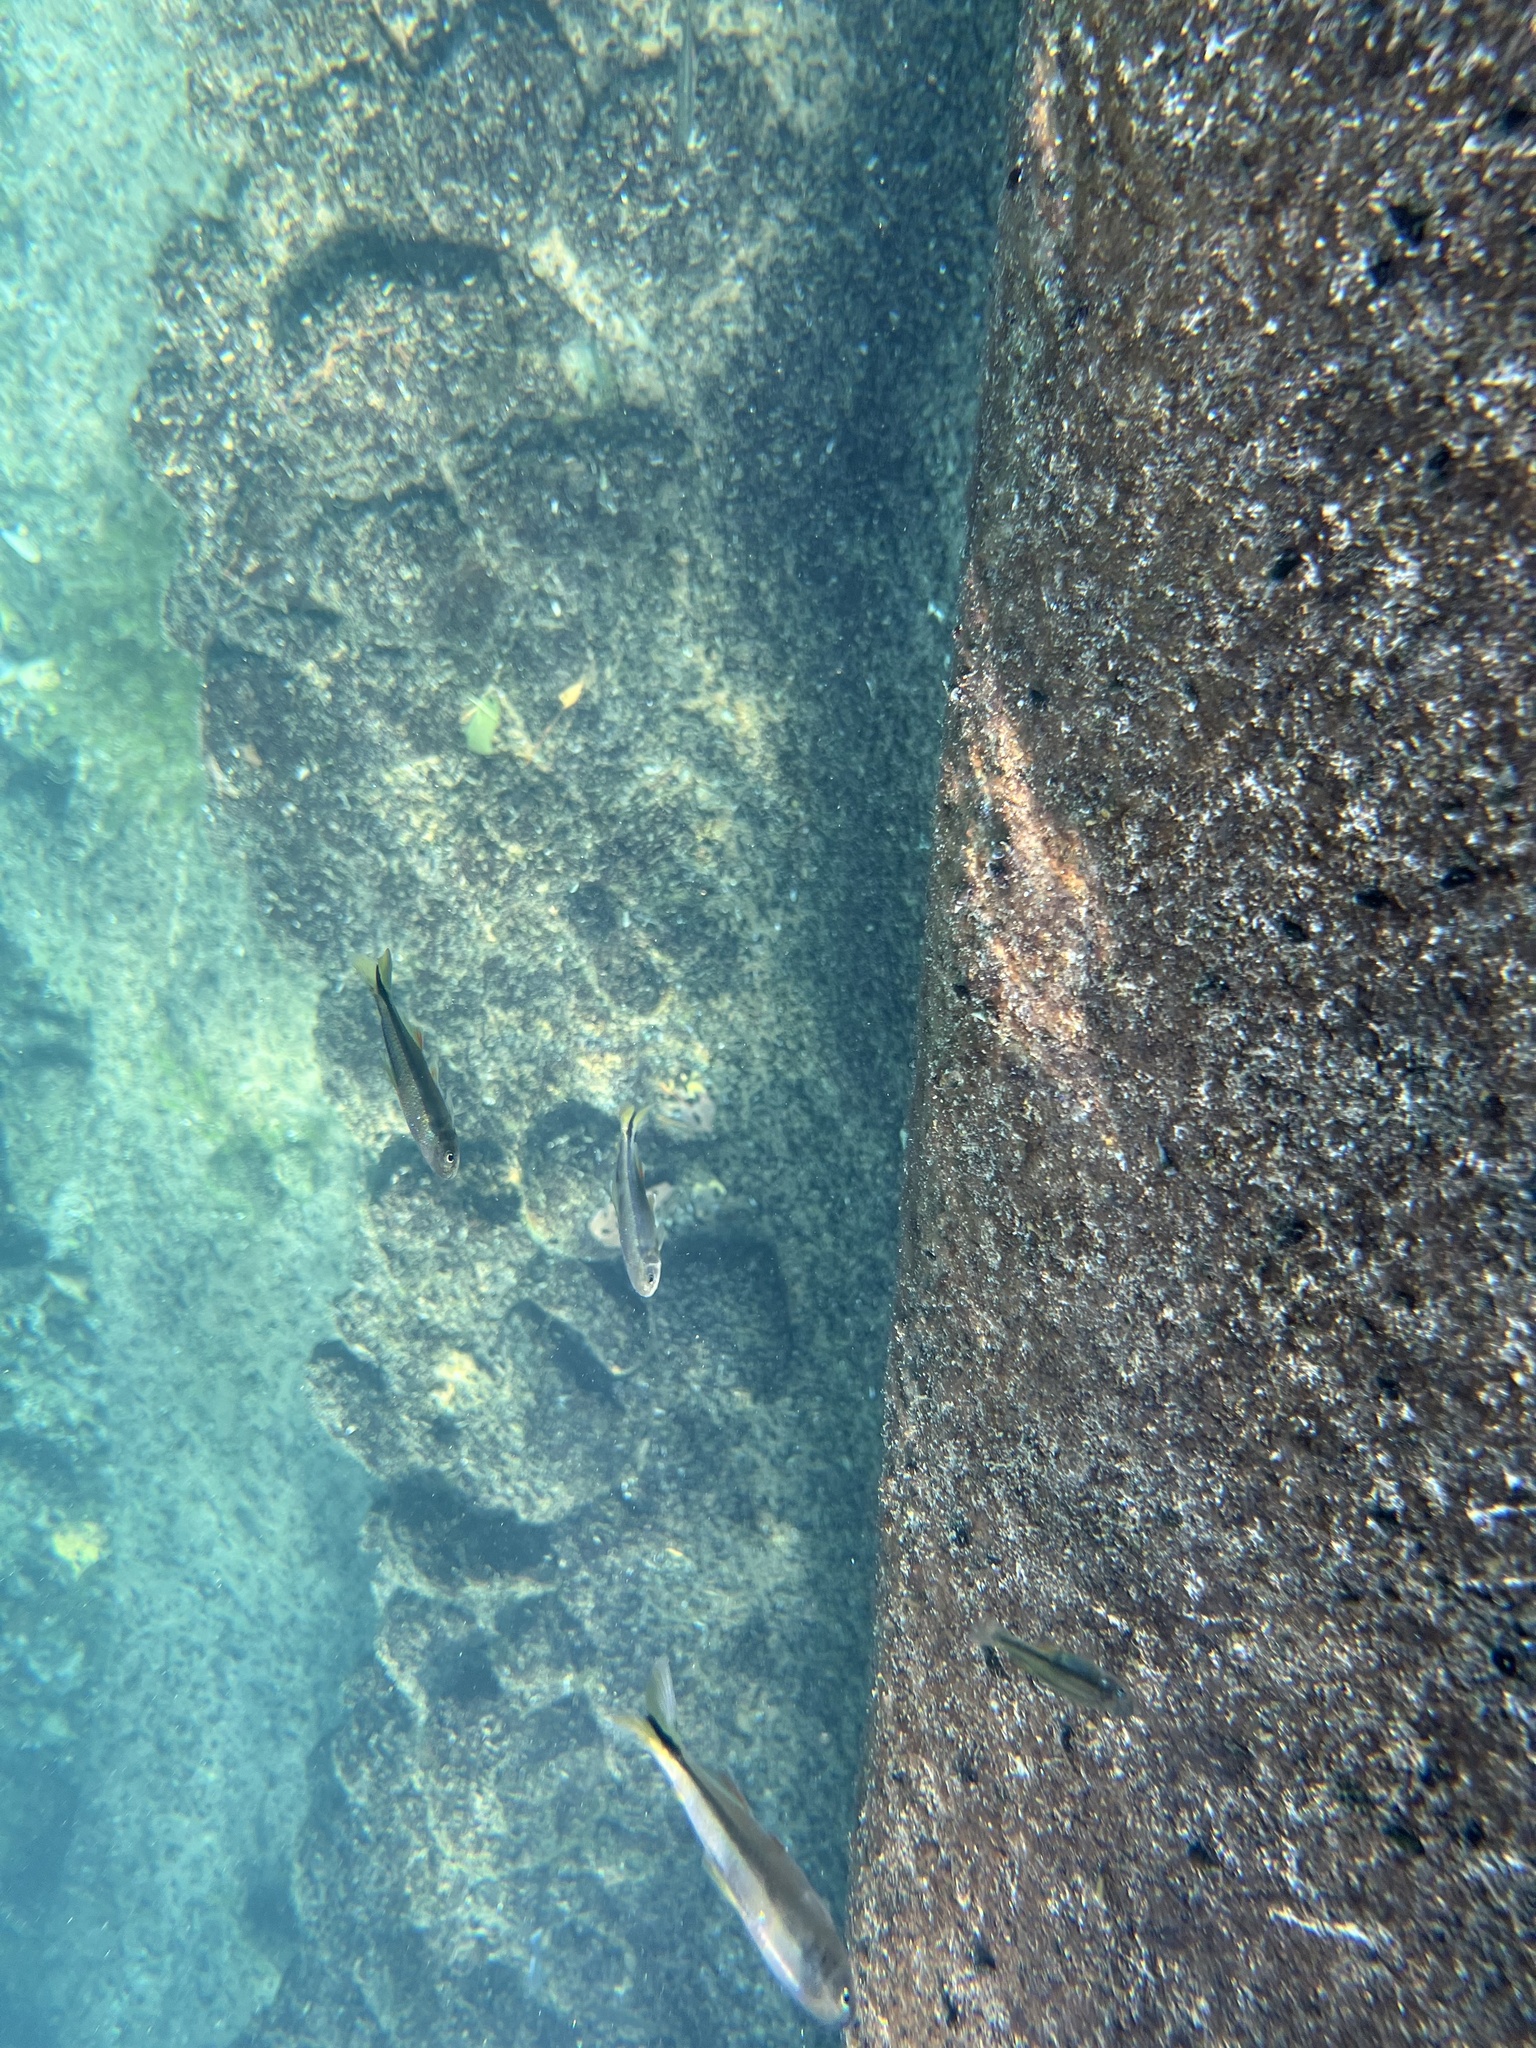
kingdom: Animalia
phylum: Chordata
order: Characiformes
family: Characidae
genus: Astyanax
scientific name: Astyanax mexicanus
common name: Mexican tetra
